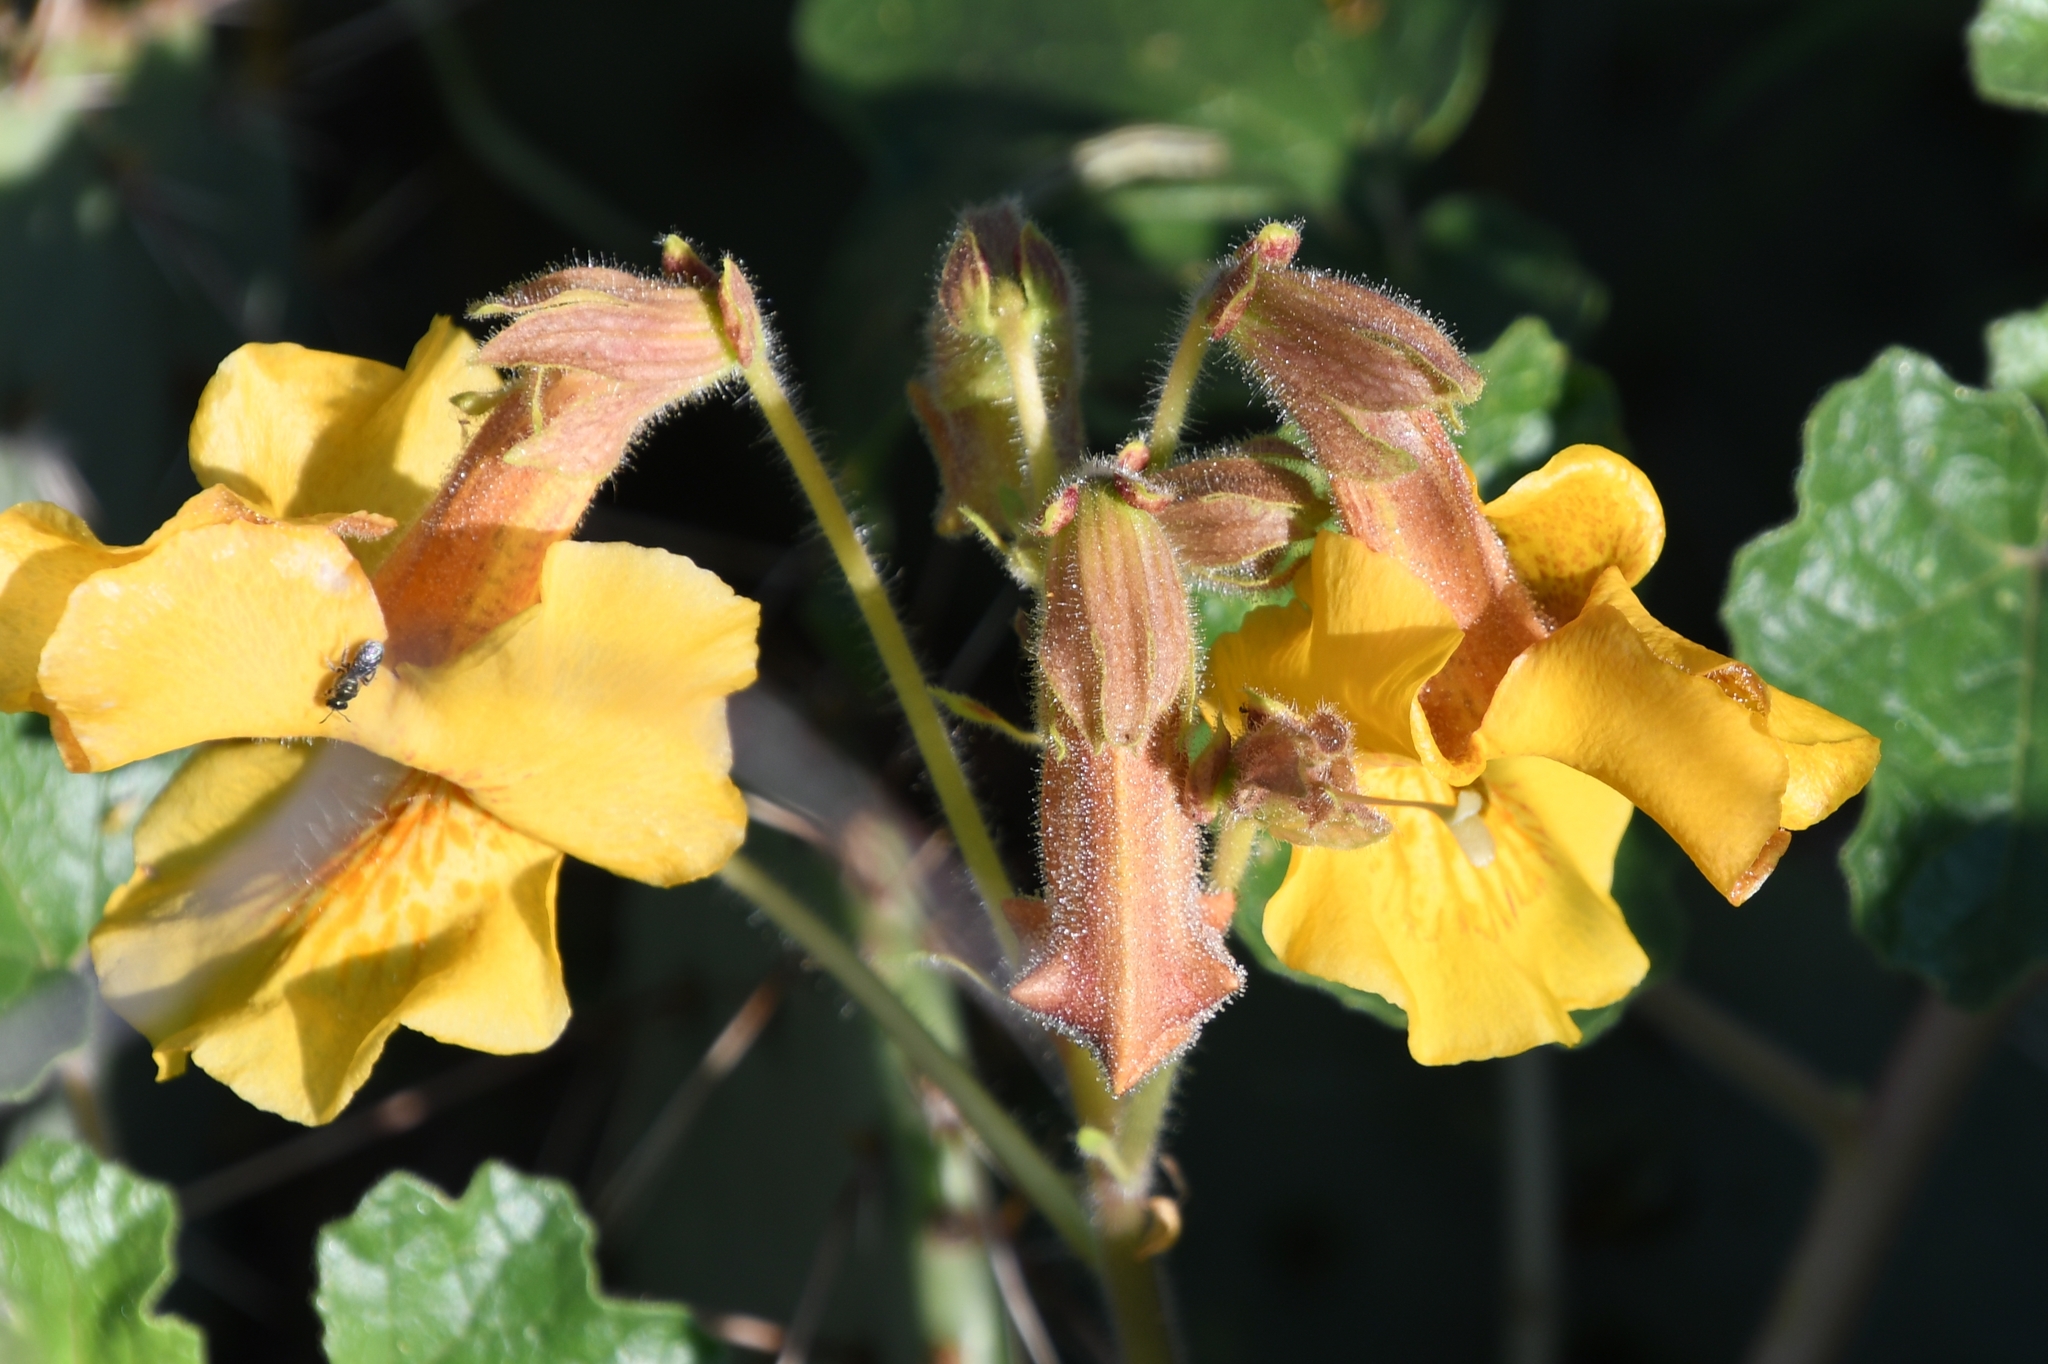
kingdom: Plantae
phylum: Tracheophyta
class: Magnoliopsida
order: Lamiales
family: Martyniaceae
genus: Proboscidea
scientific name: Proboscidea althaeifolia
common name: Desert unicorn-plant
